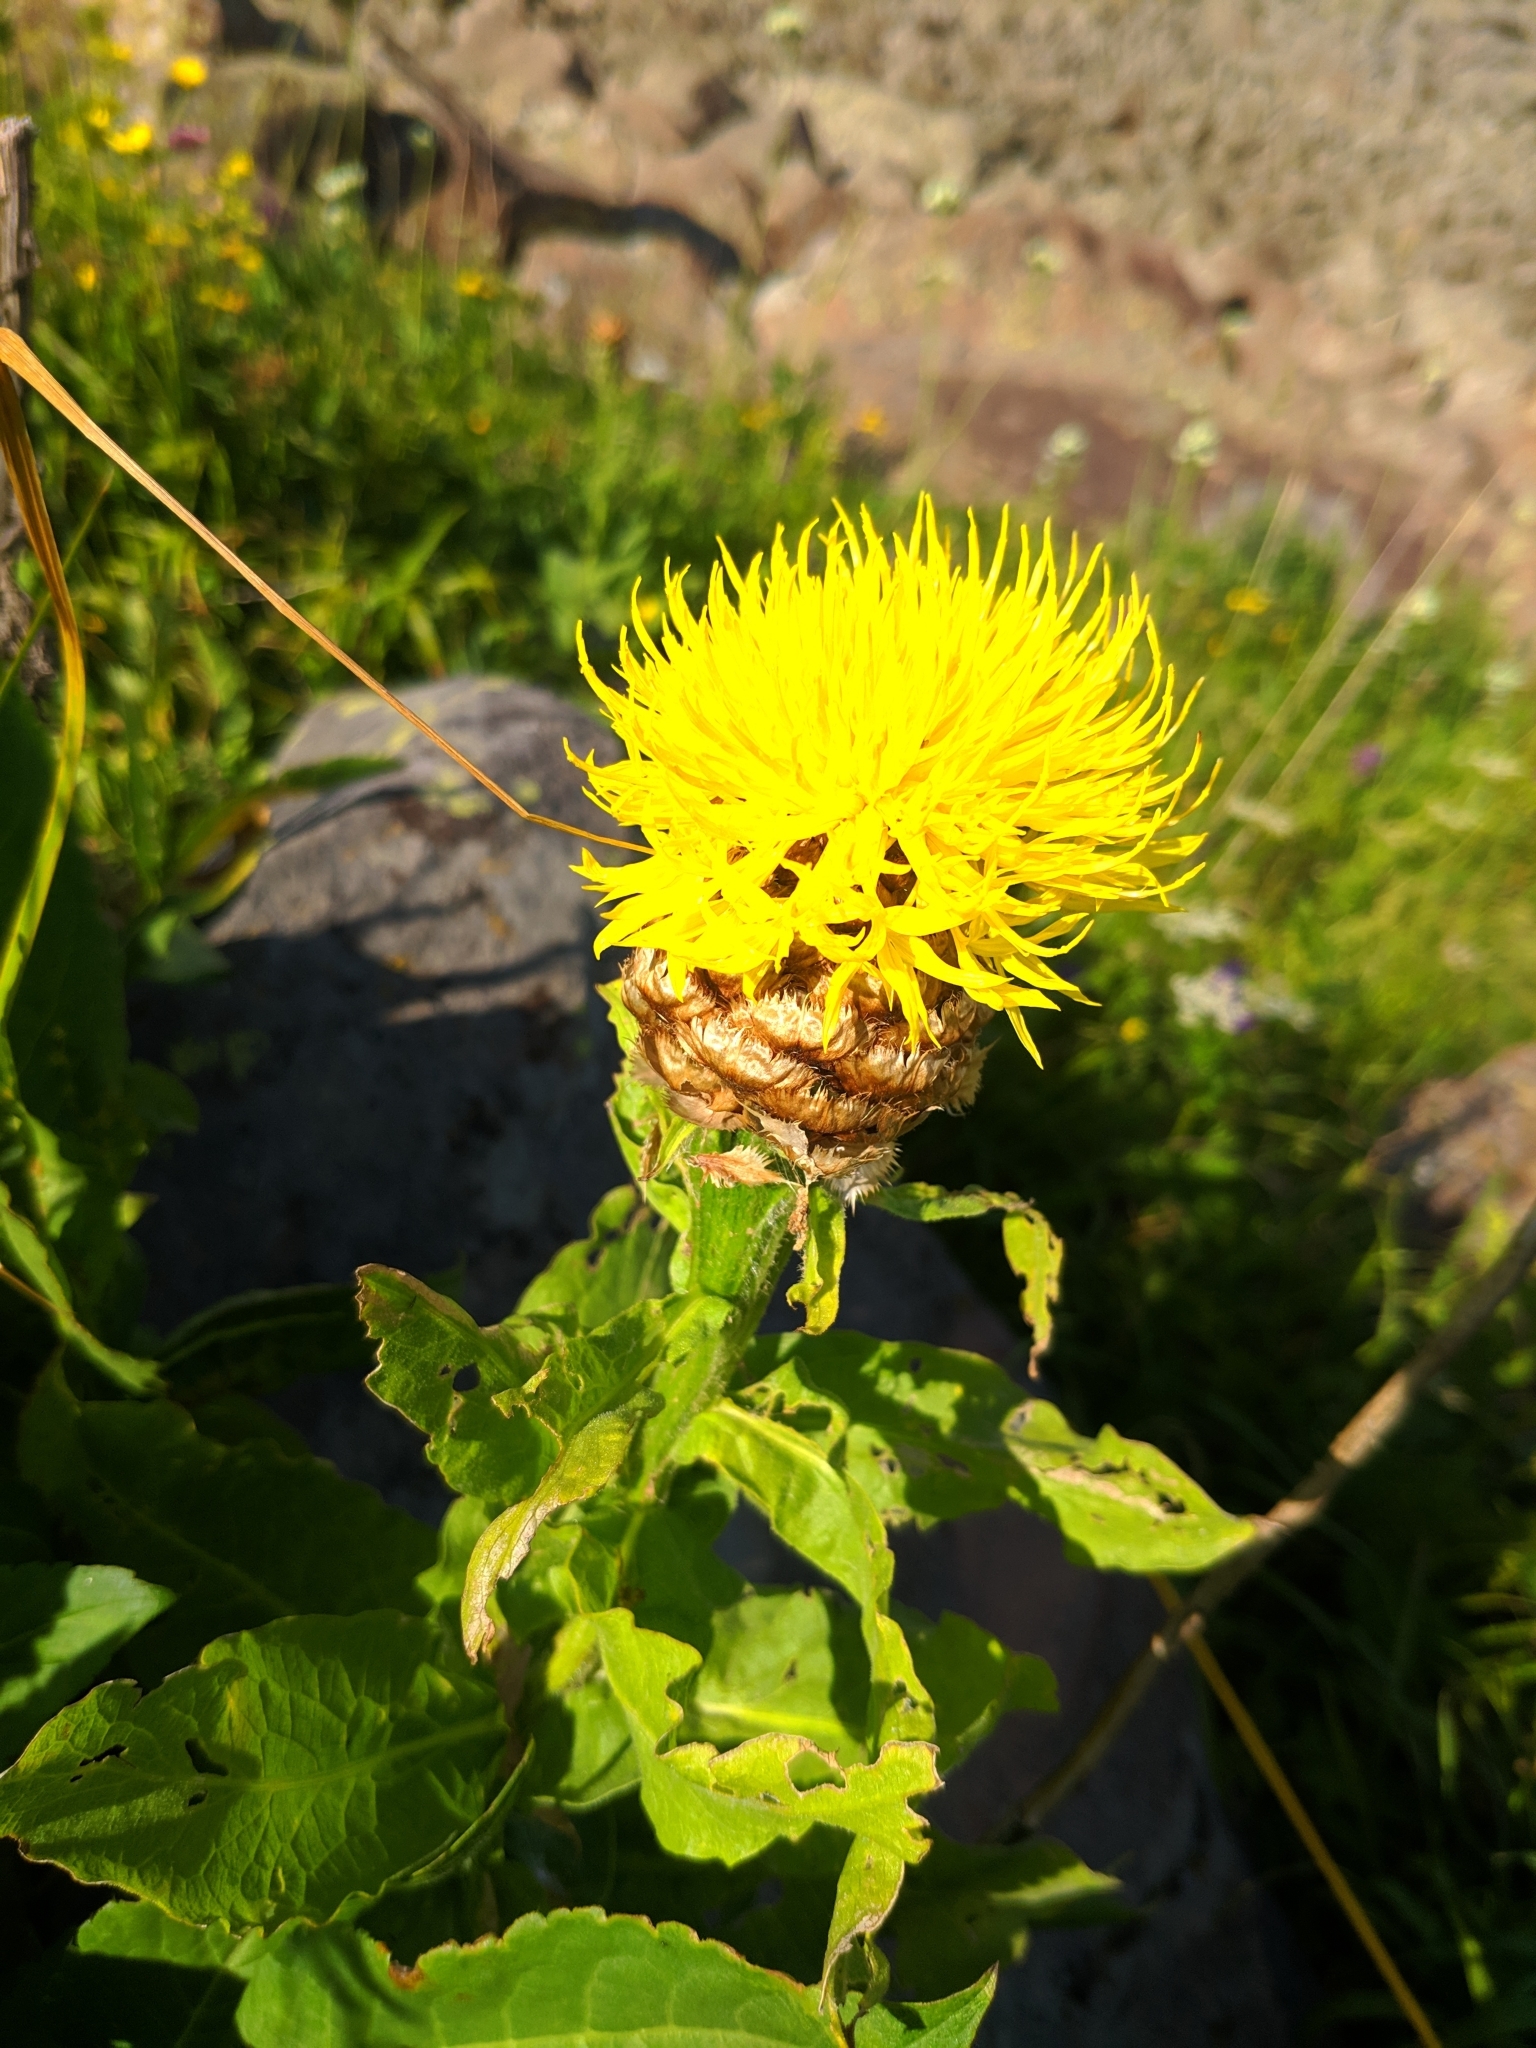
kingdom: Plantae
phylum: Tracheophyta
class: Magnoliopsida
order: Asterales
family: Asteraceae
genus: Centaurea
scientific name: Centaurea macrocephala
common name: Big-head knapweed
